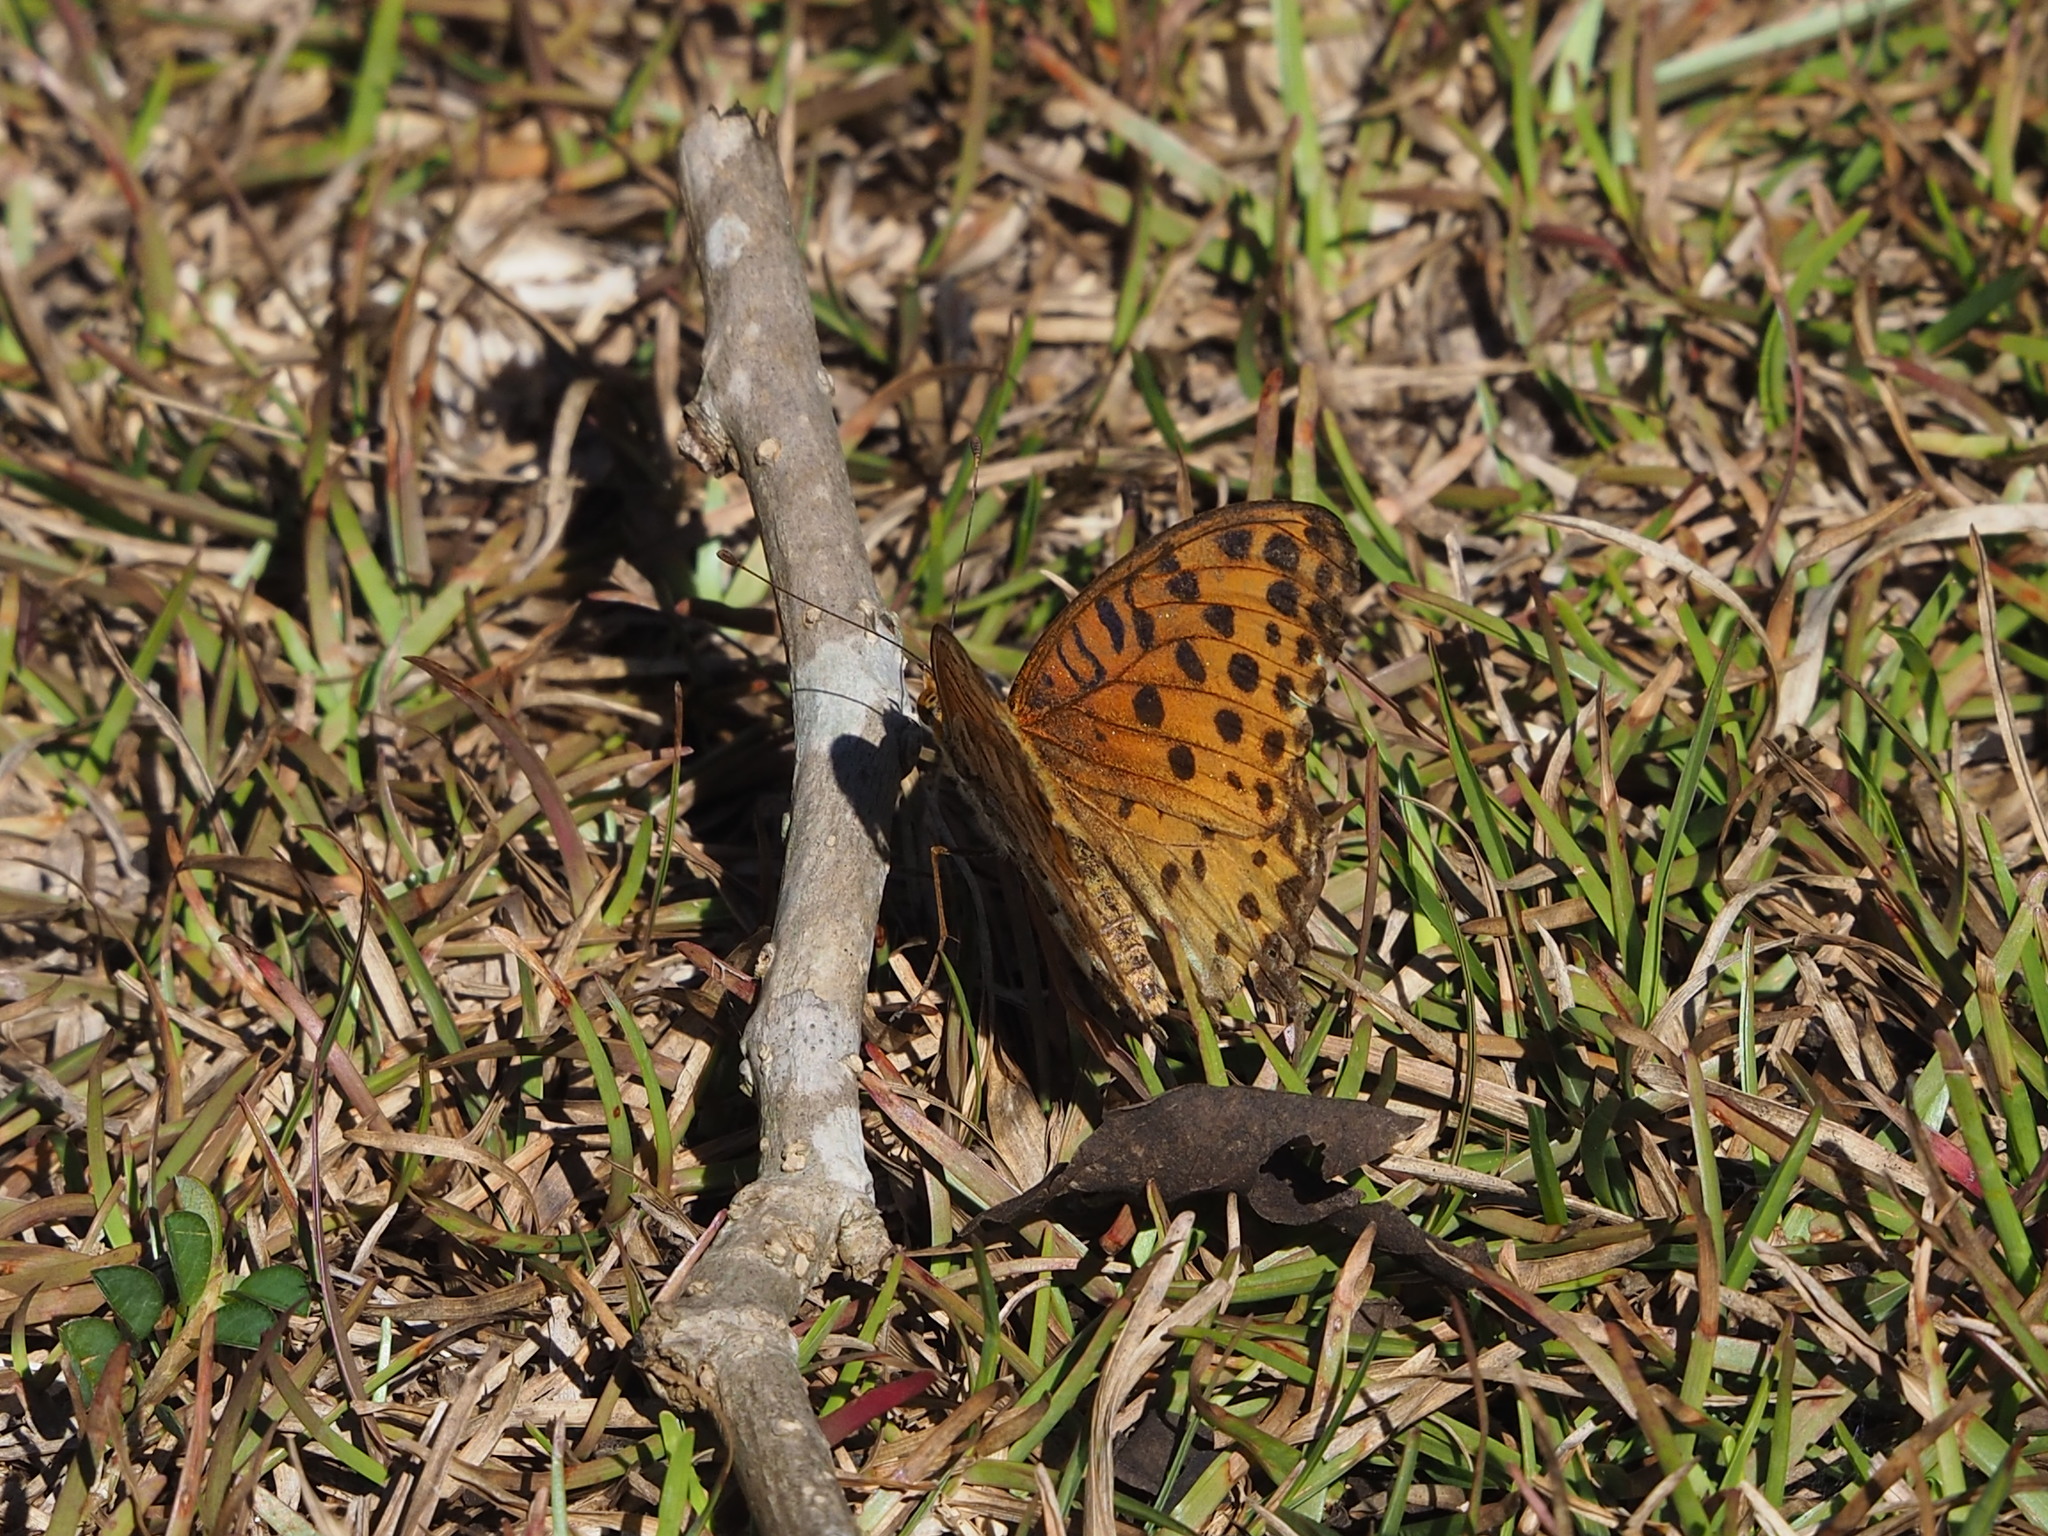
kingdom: Animalia
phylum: Arthropoda
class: Insecta
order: Lepidoptera
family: Nymphalidae
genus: Argynnis
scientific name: Argynnis hyperbius
